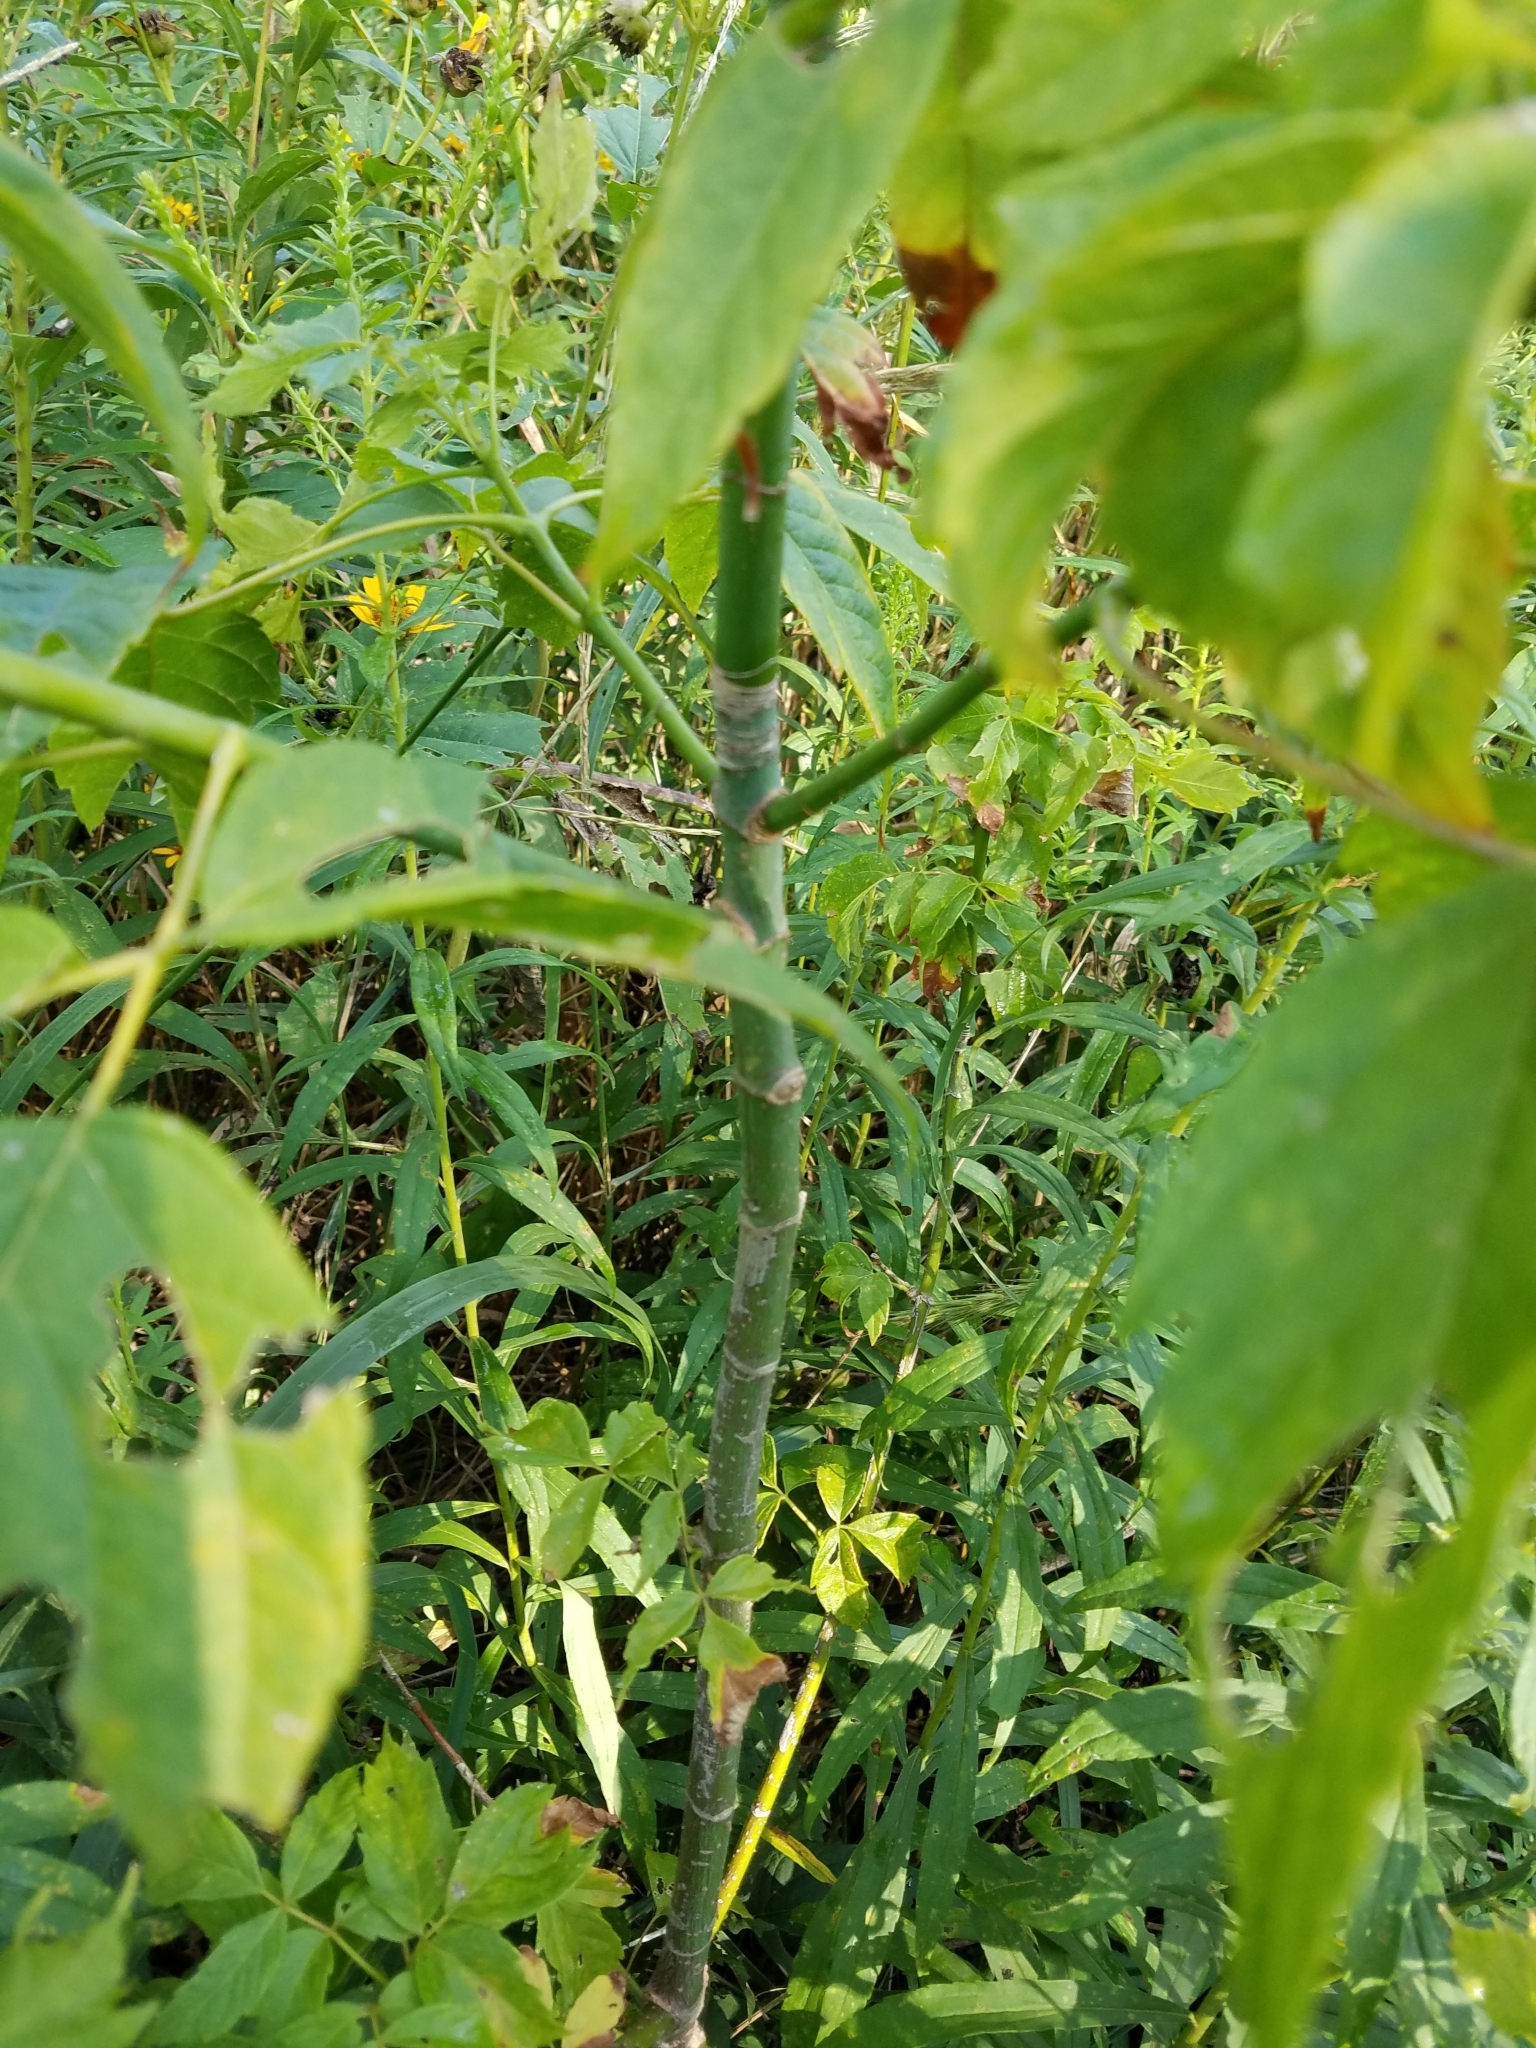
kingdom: Plantae
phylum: Tracheophyta
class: Magnoliopsida
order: Sapindales
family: Sapindaceae
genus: Acer
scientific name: Acer negundo
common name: Ashleaf maple
